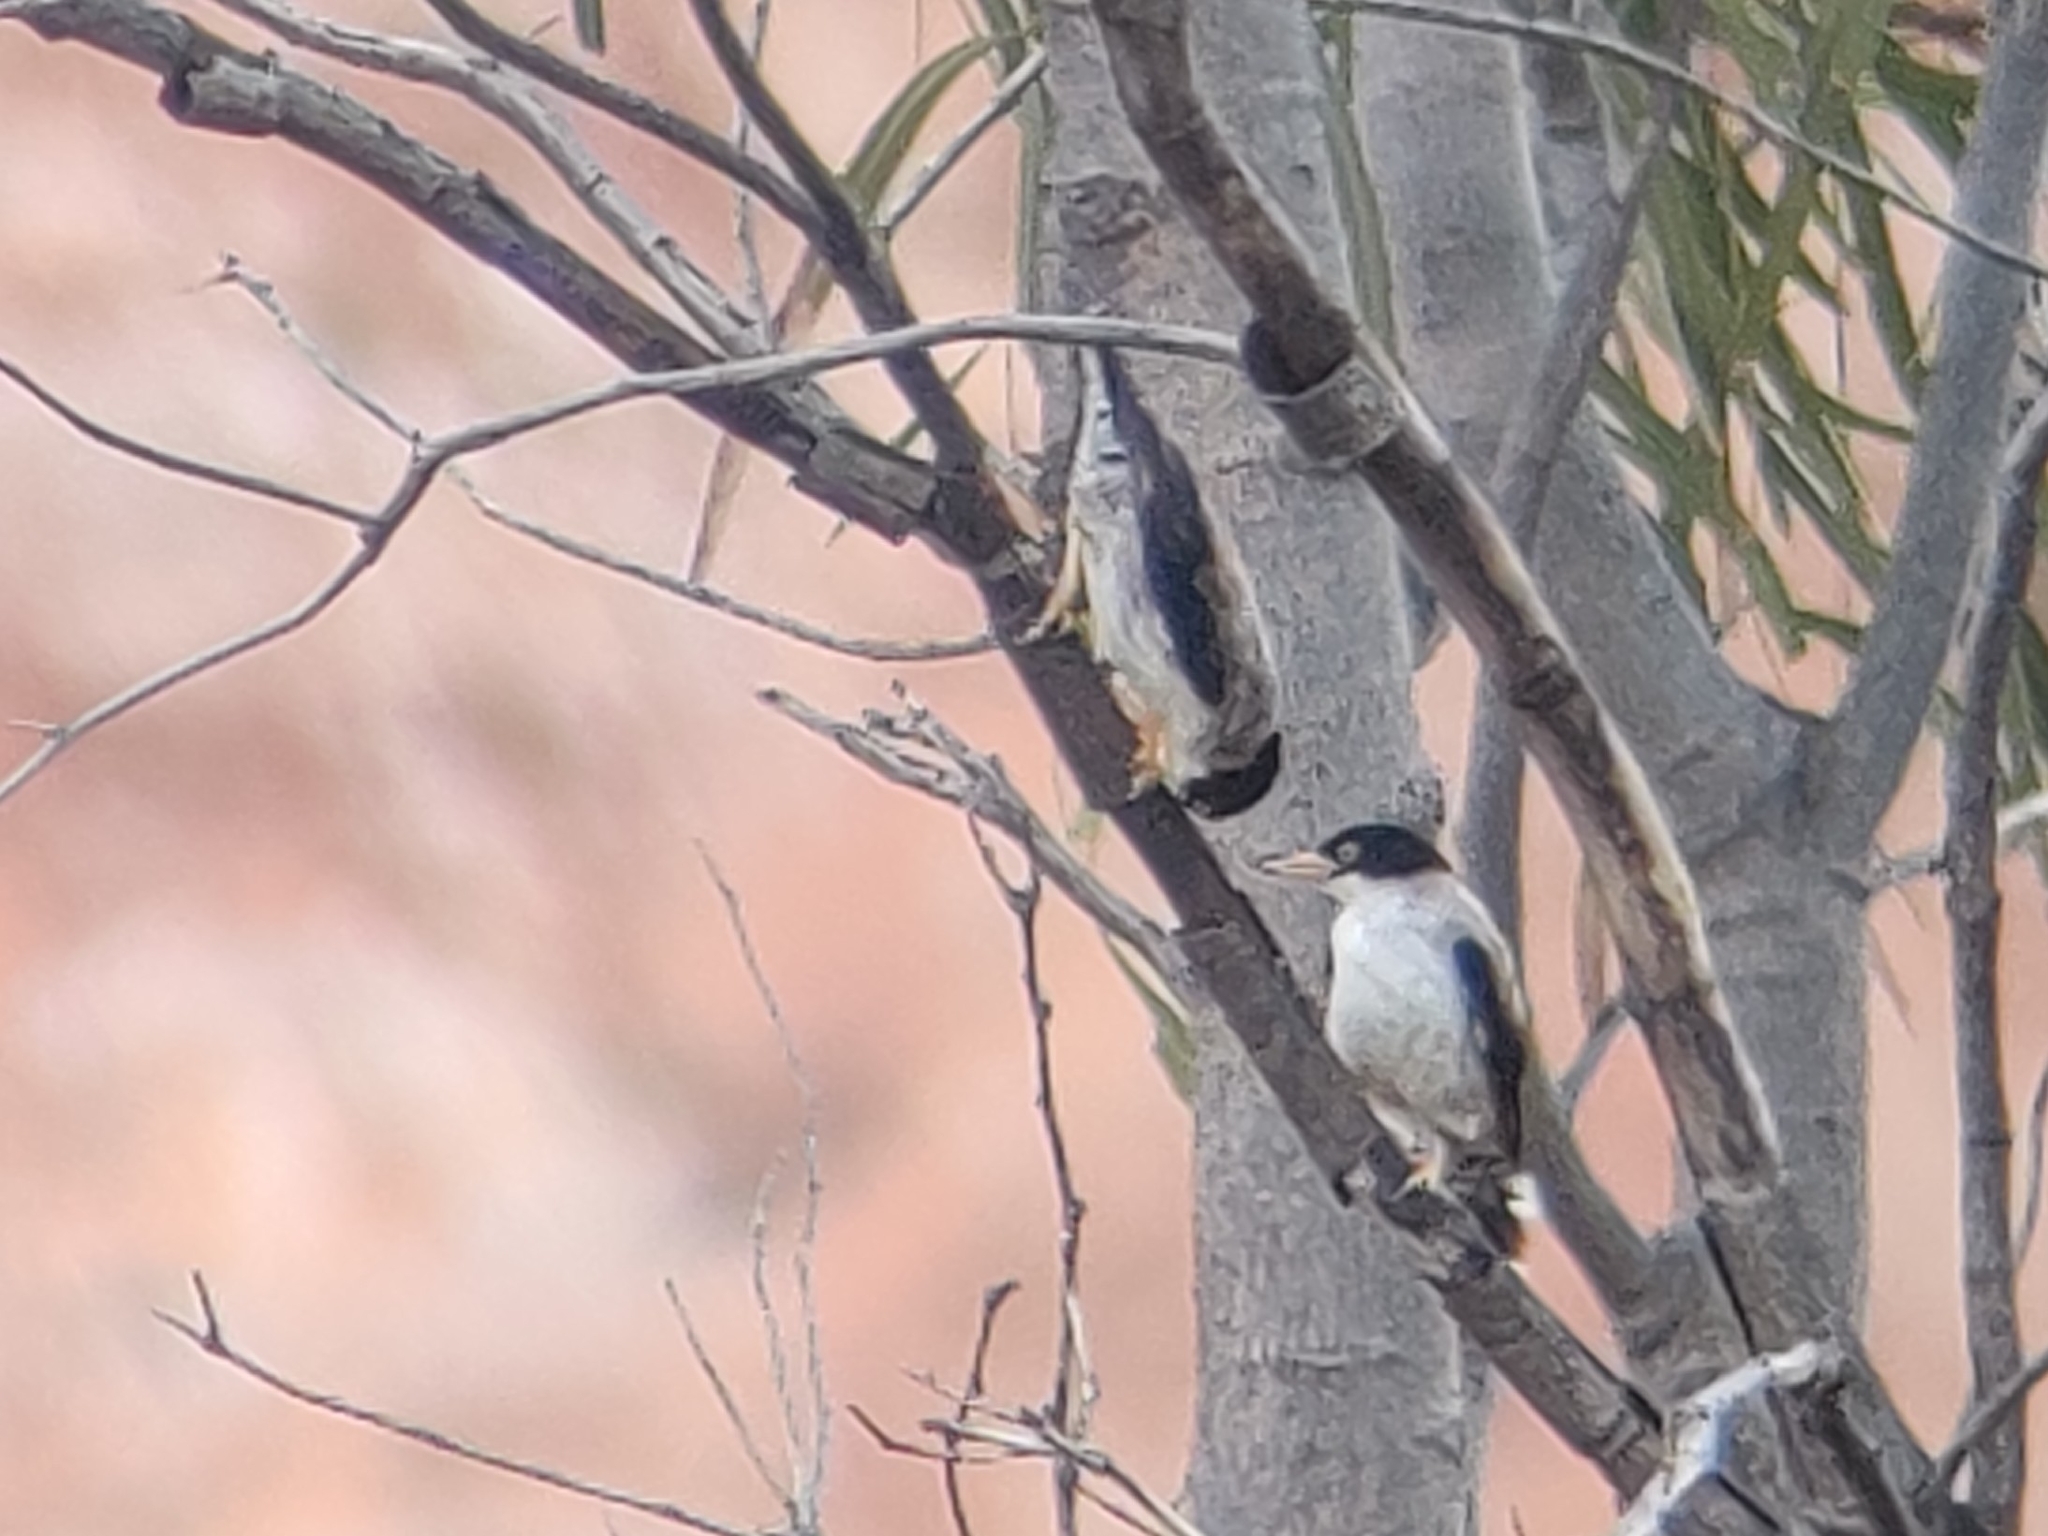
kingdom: Animalia
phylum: Chordata
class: Aves
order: Passeriformes
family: Neosittidae
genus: Daphoenositta
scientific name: Daphoenositta chrysoptera
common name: Varied sittella
